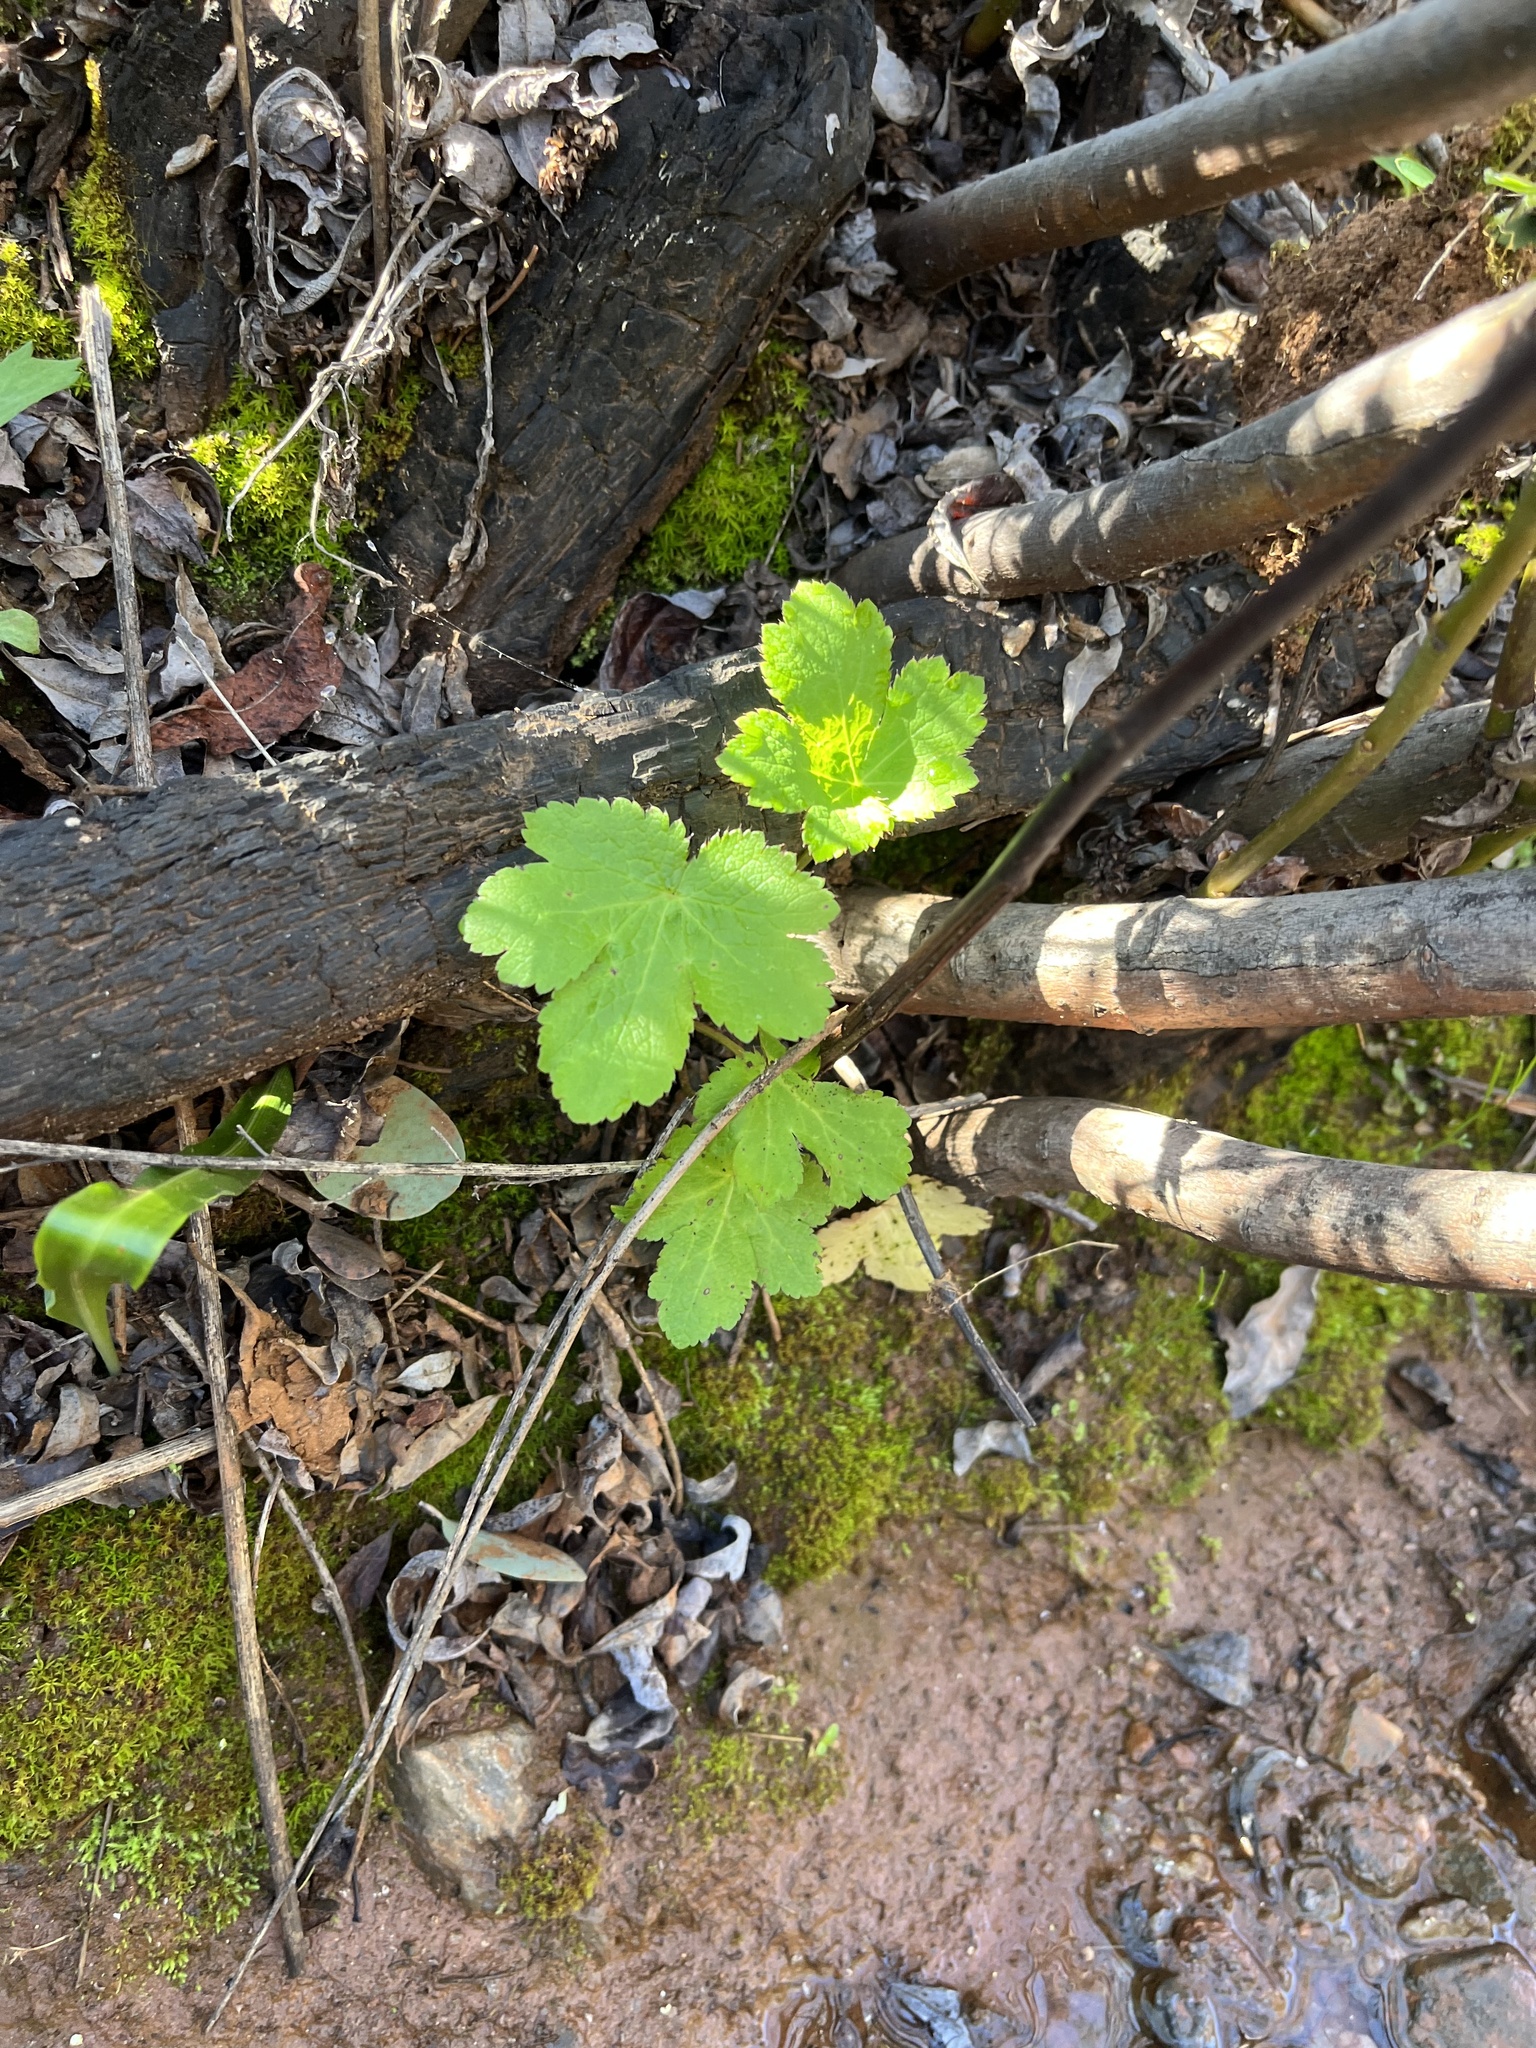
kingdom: Plantae
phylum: Tracheophyta
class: Magnoliopsida
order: Apiales
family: Apiaceae
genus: Sanicula
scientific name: Sanicula crassicaulis
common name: Western snakeroot
